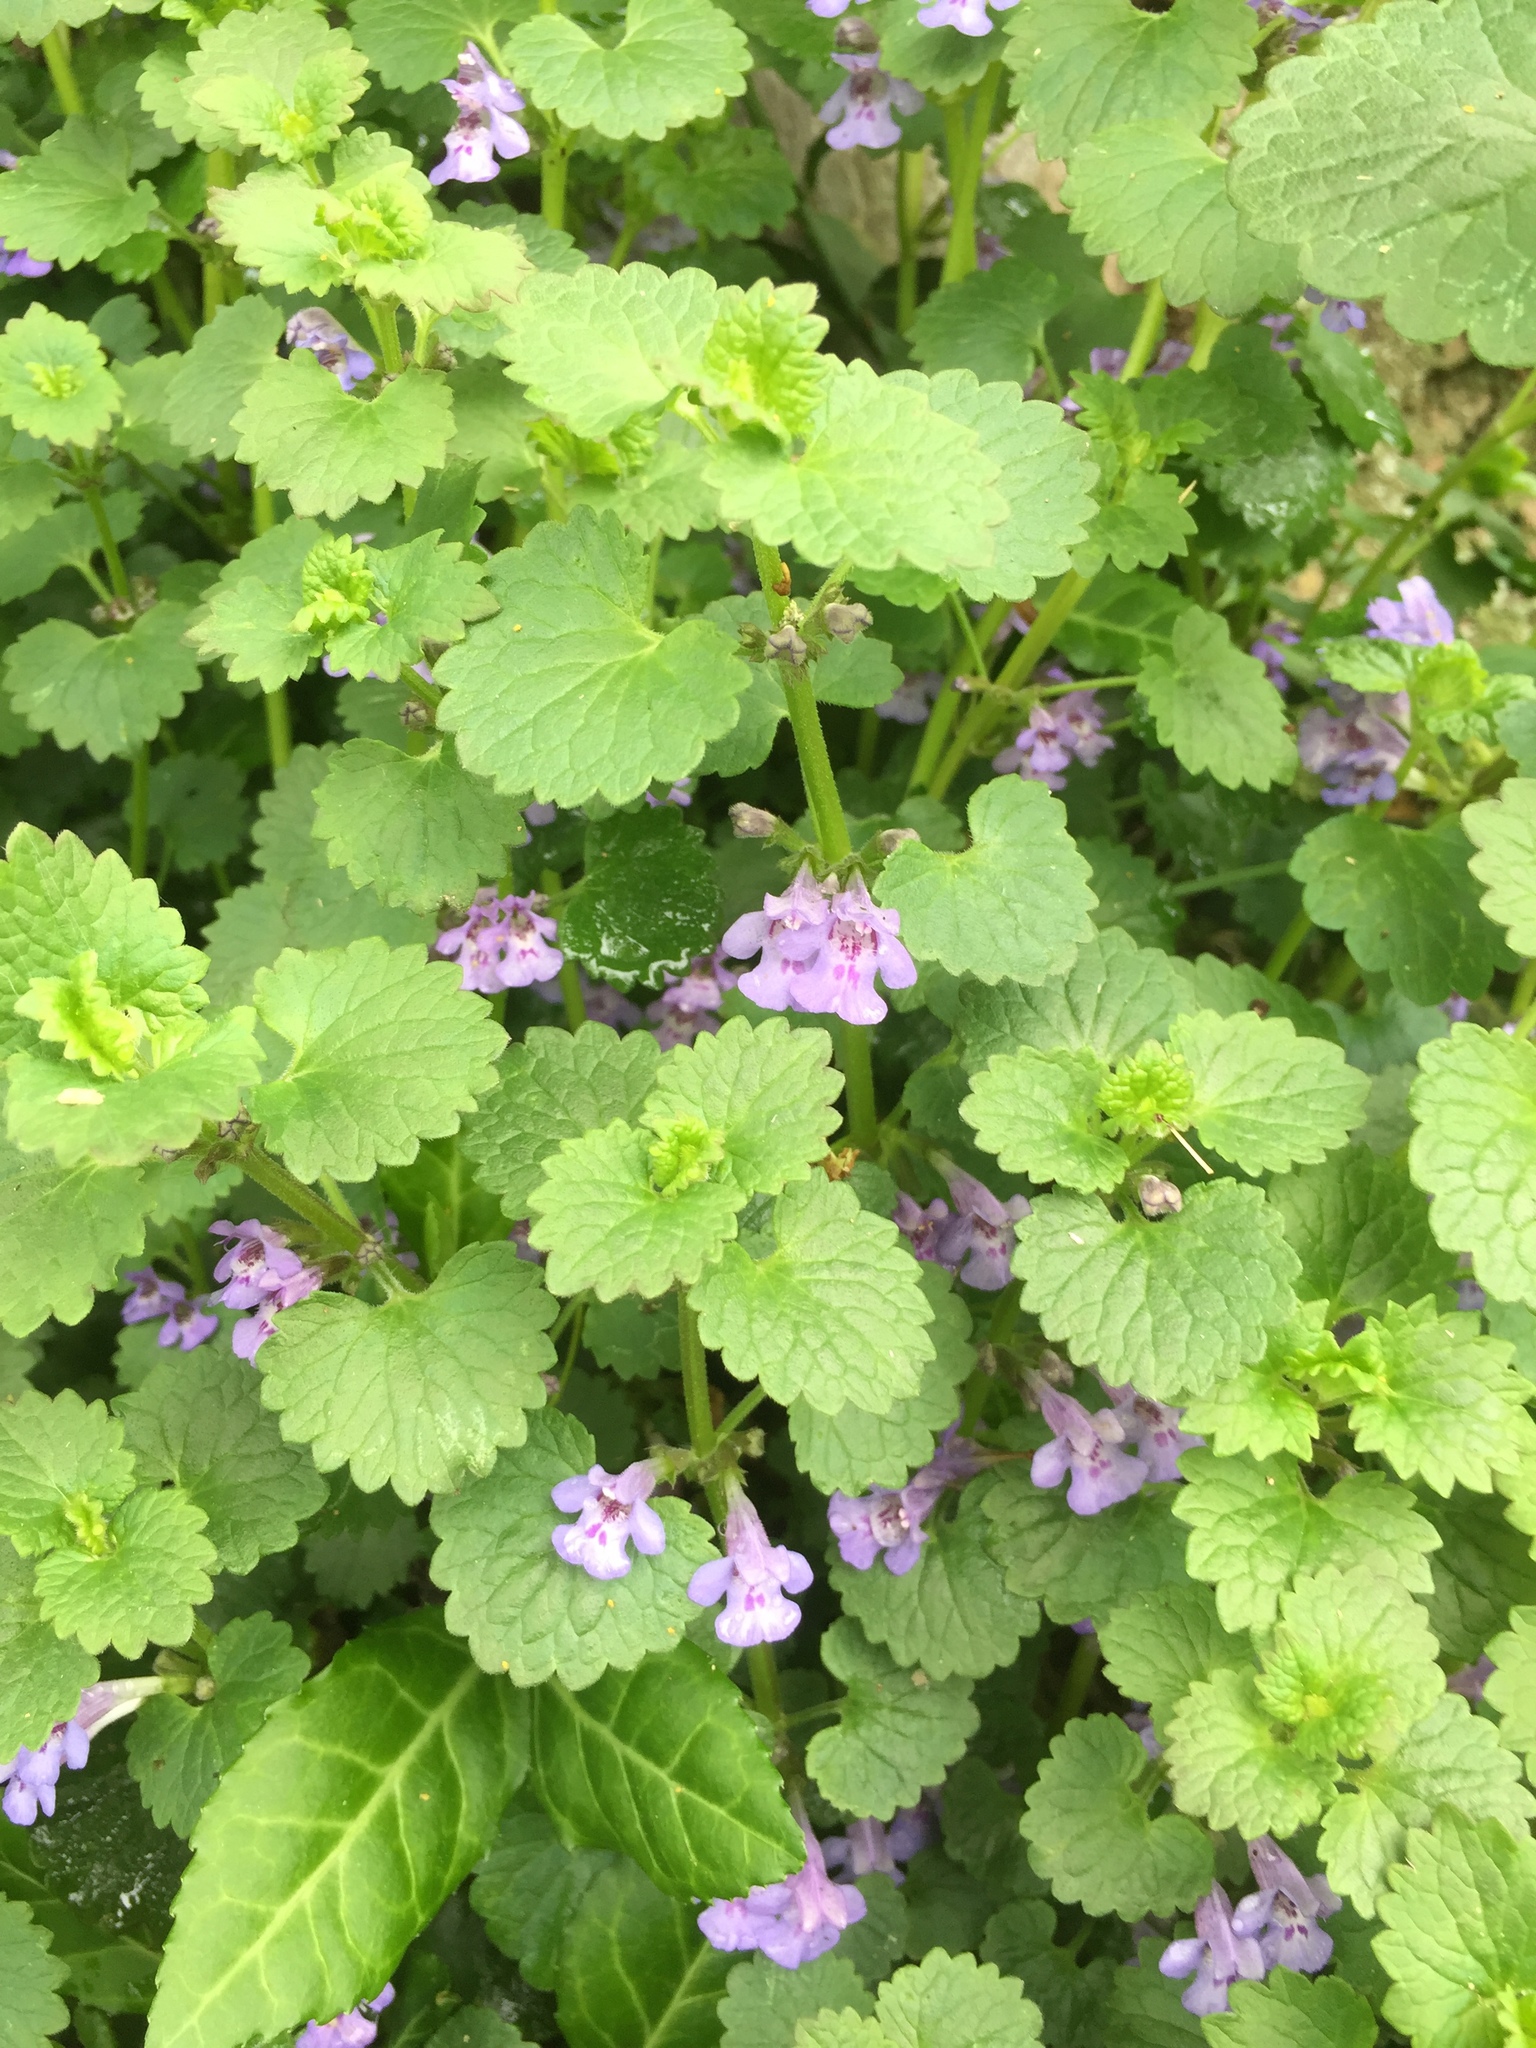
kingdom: Plantae
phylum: Tracheophyta
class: Magnoliopsida
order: Lamiales
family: Lamiaceae
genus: Glechoma
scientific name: Glechoma hederacea
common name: Ground ivy
